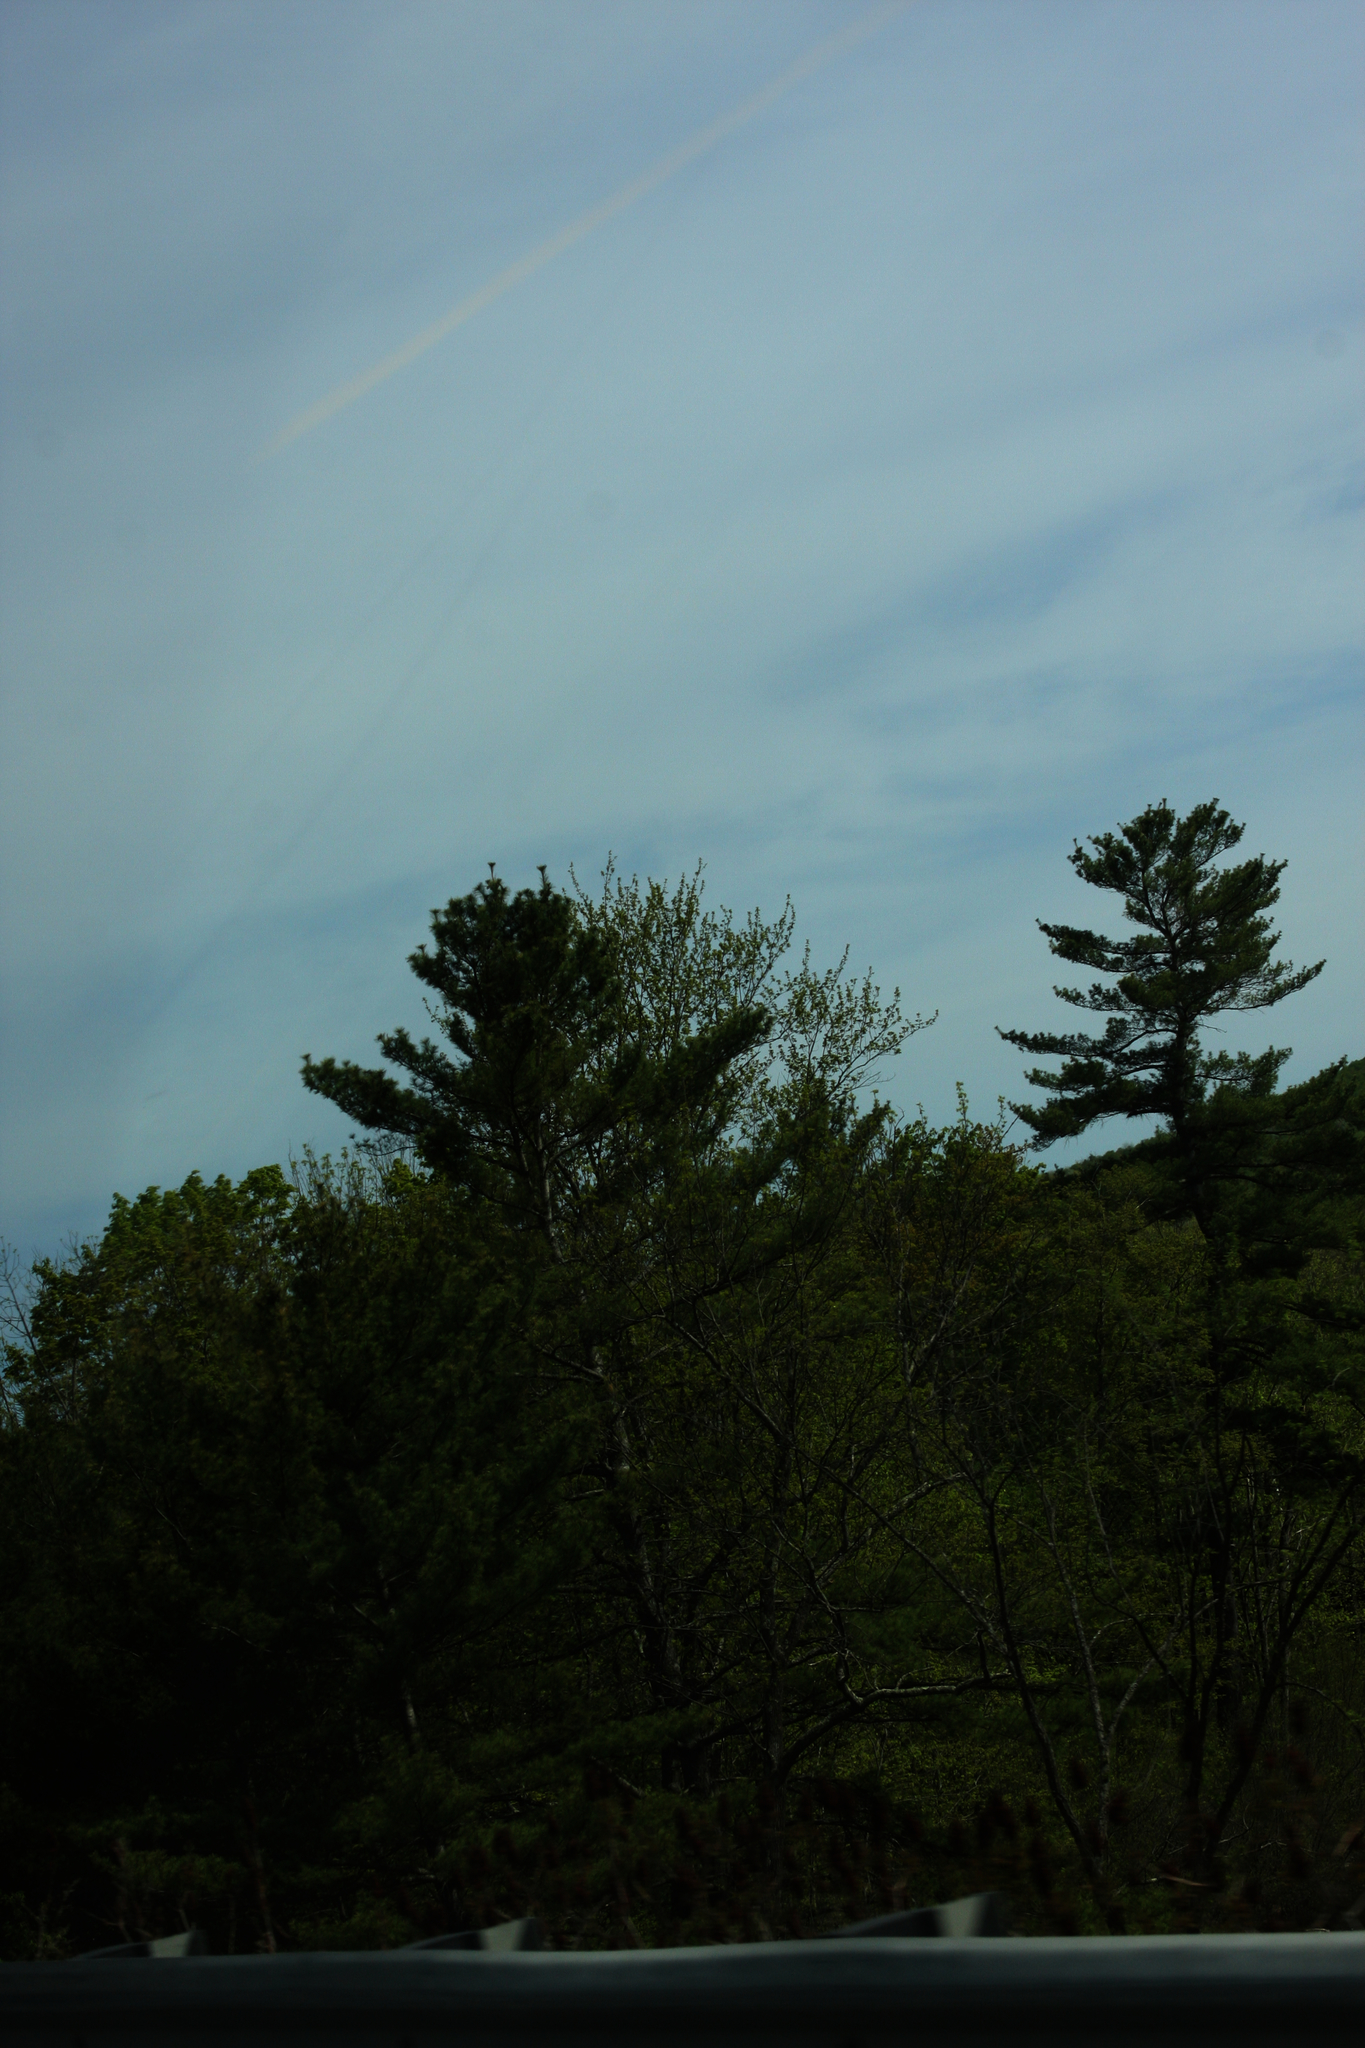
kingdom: Plantae
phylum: Tracheophyta
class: Pinopsida
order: Pinales
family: Pinaceae
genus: Pinus
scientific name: Pinus strobus
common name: Weymouth pine
